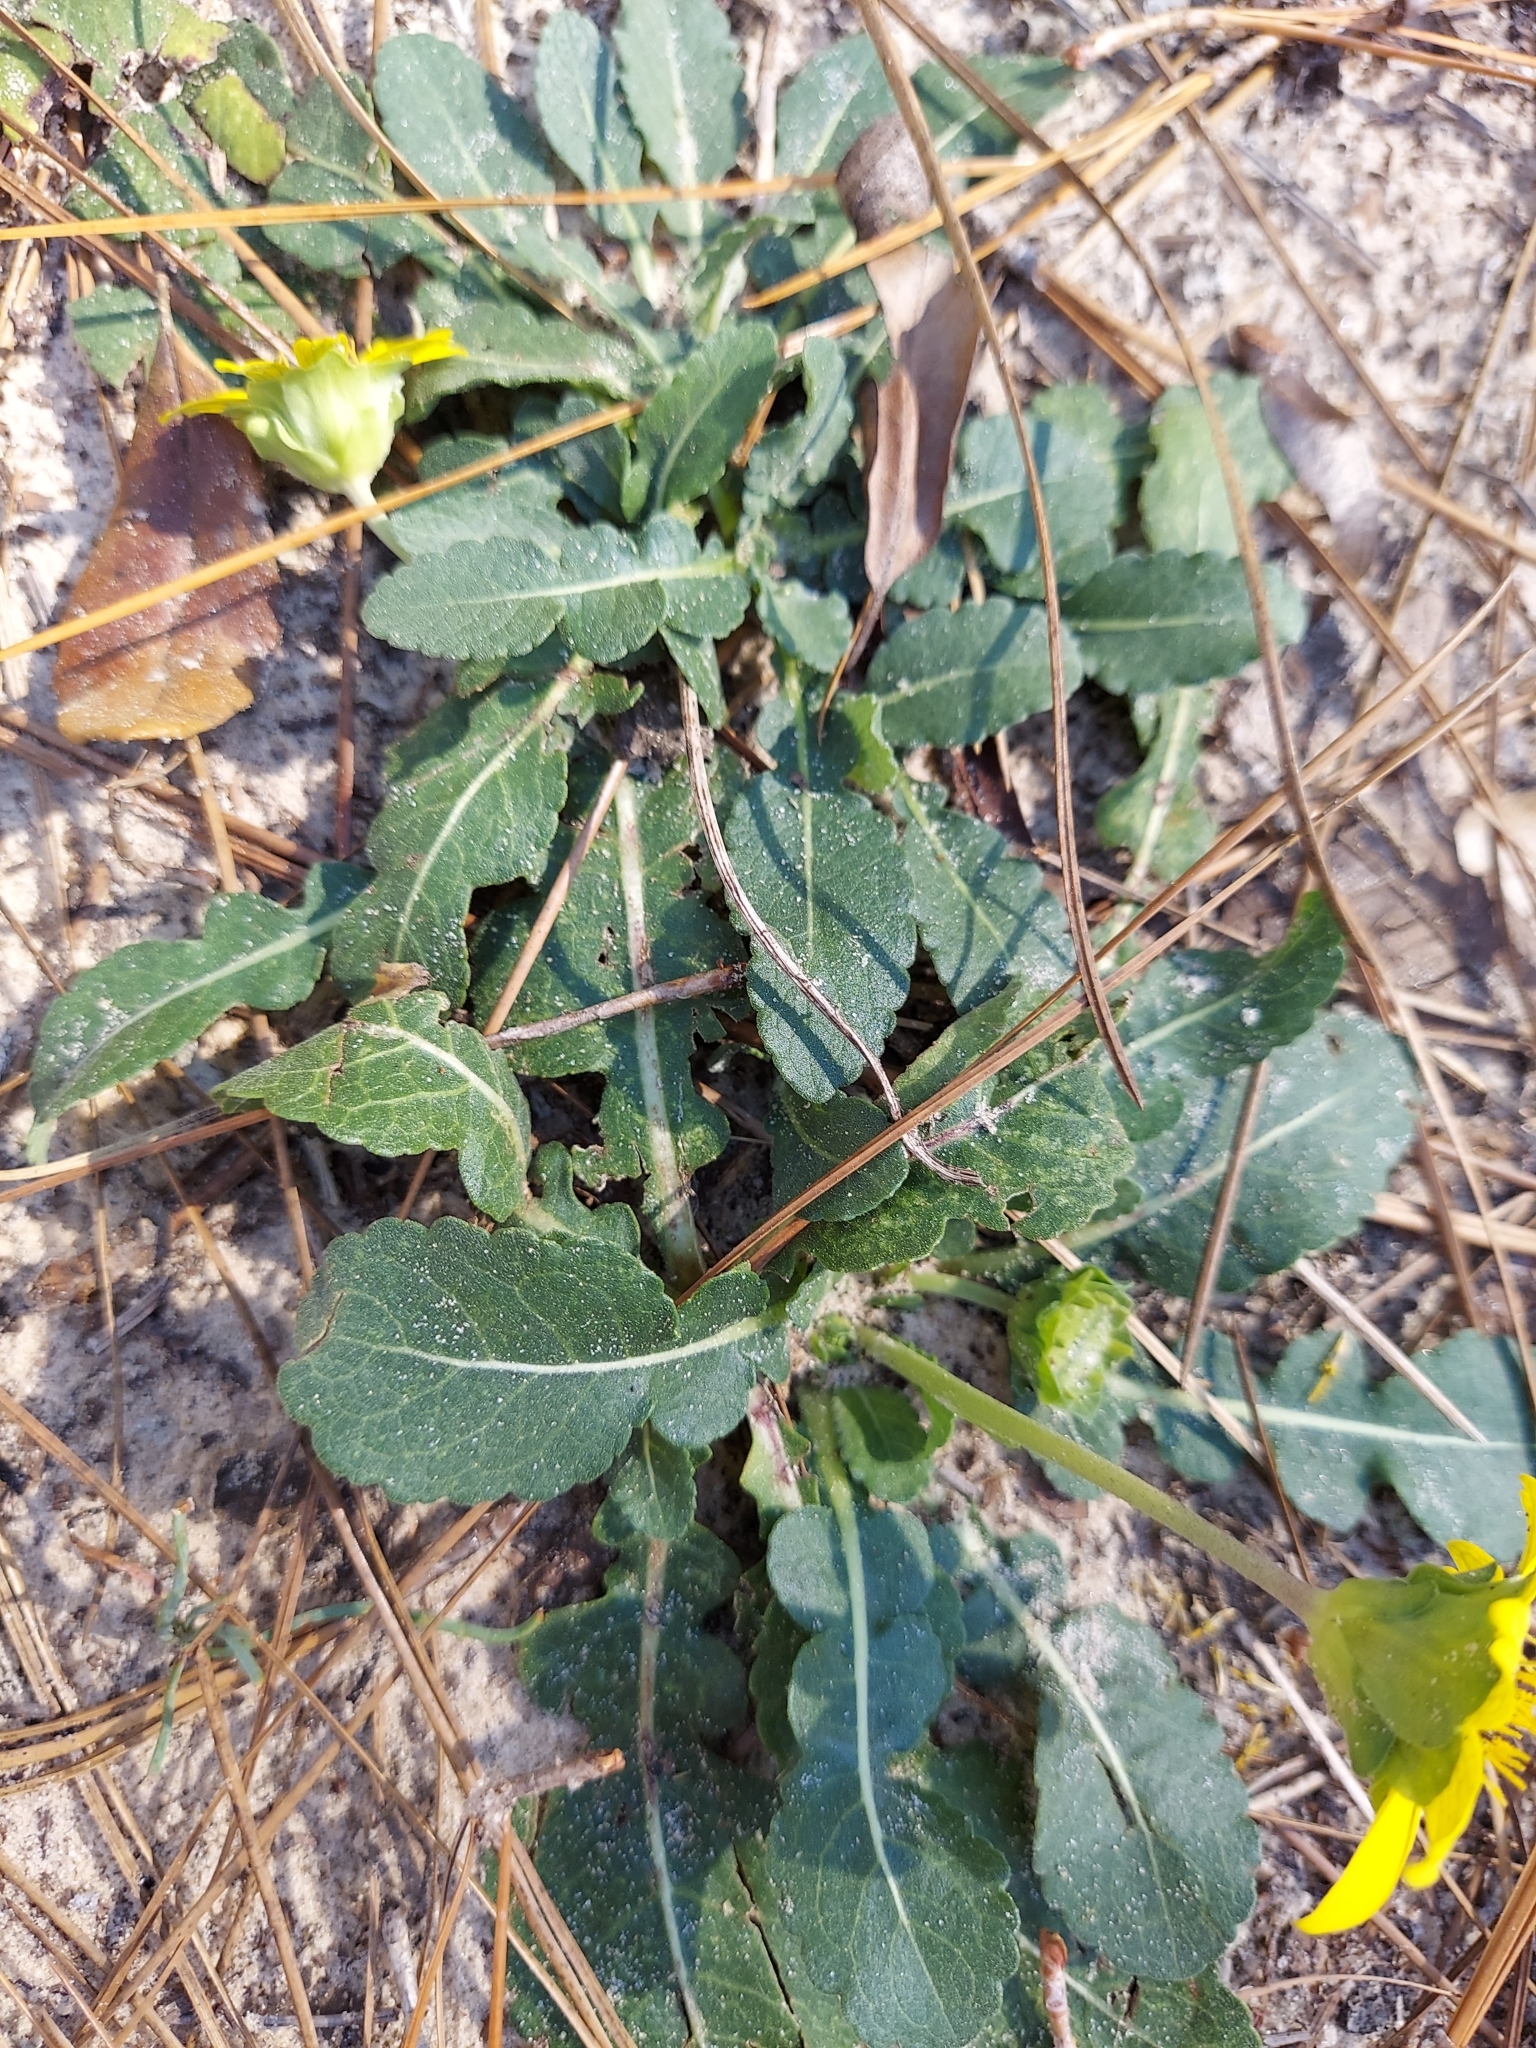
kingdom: Plantae
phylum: Tracheophyta
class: Magnoliopsida
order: Asterales
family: Asteraceae
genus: Berlandiera
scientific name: Berlandiera subacaulis
